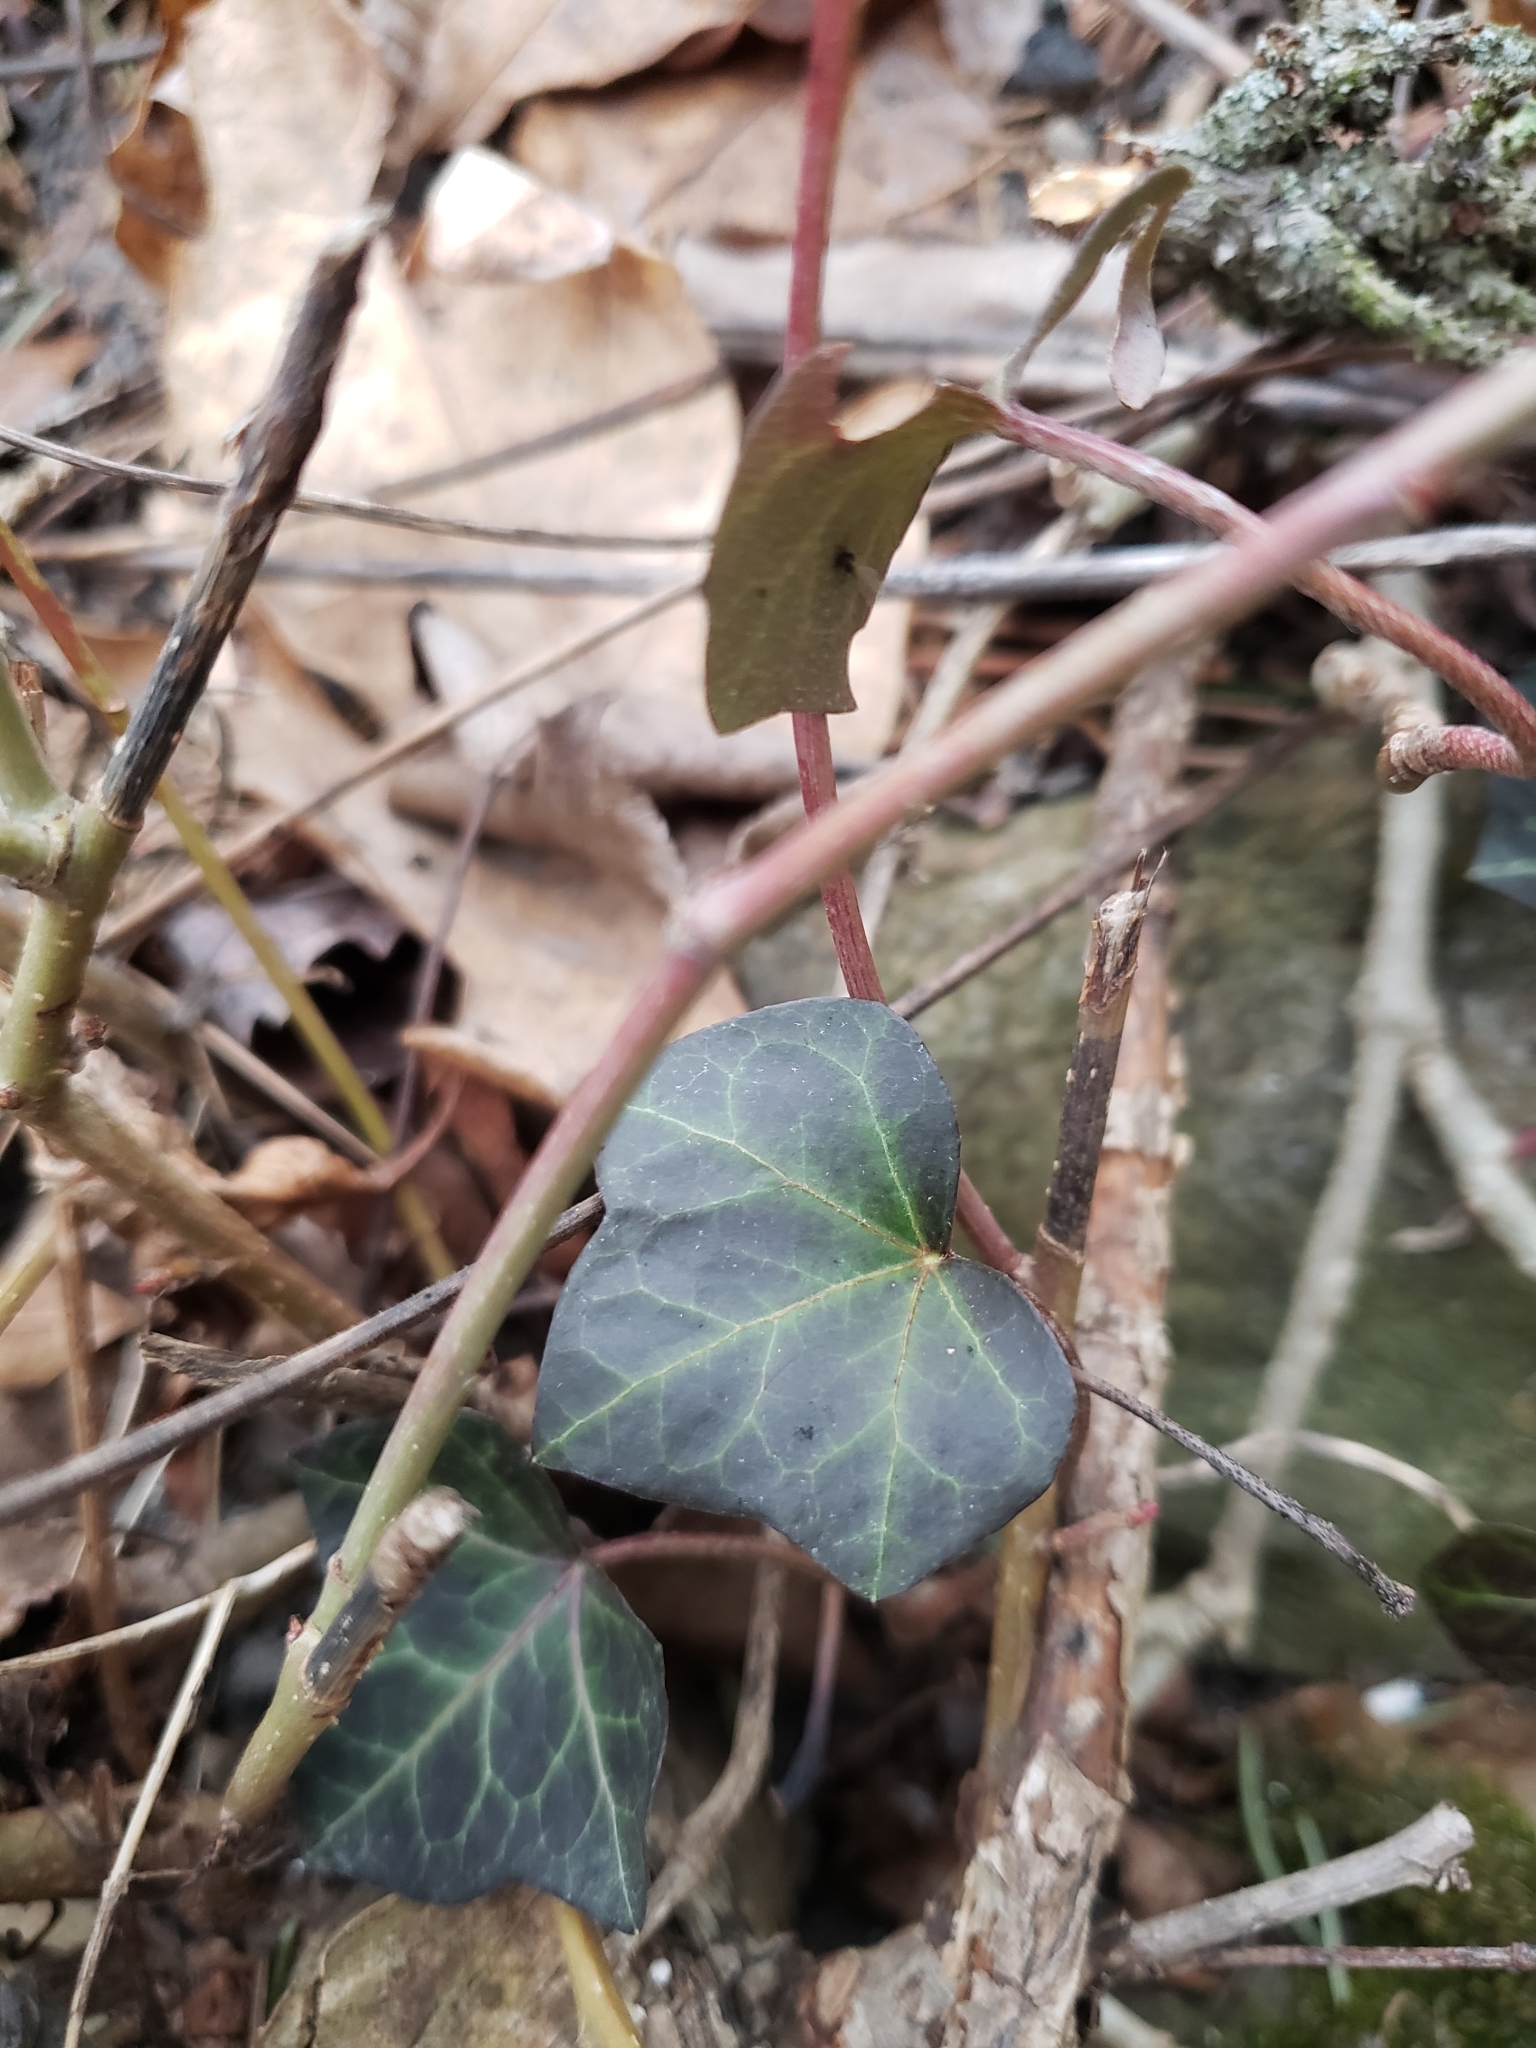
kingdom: Plantae
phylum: Tracheophyta
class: Magnoliopsida
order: Apiales
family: Araliaceae
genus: Hedera
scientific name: Hedera helix
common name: Ivy
